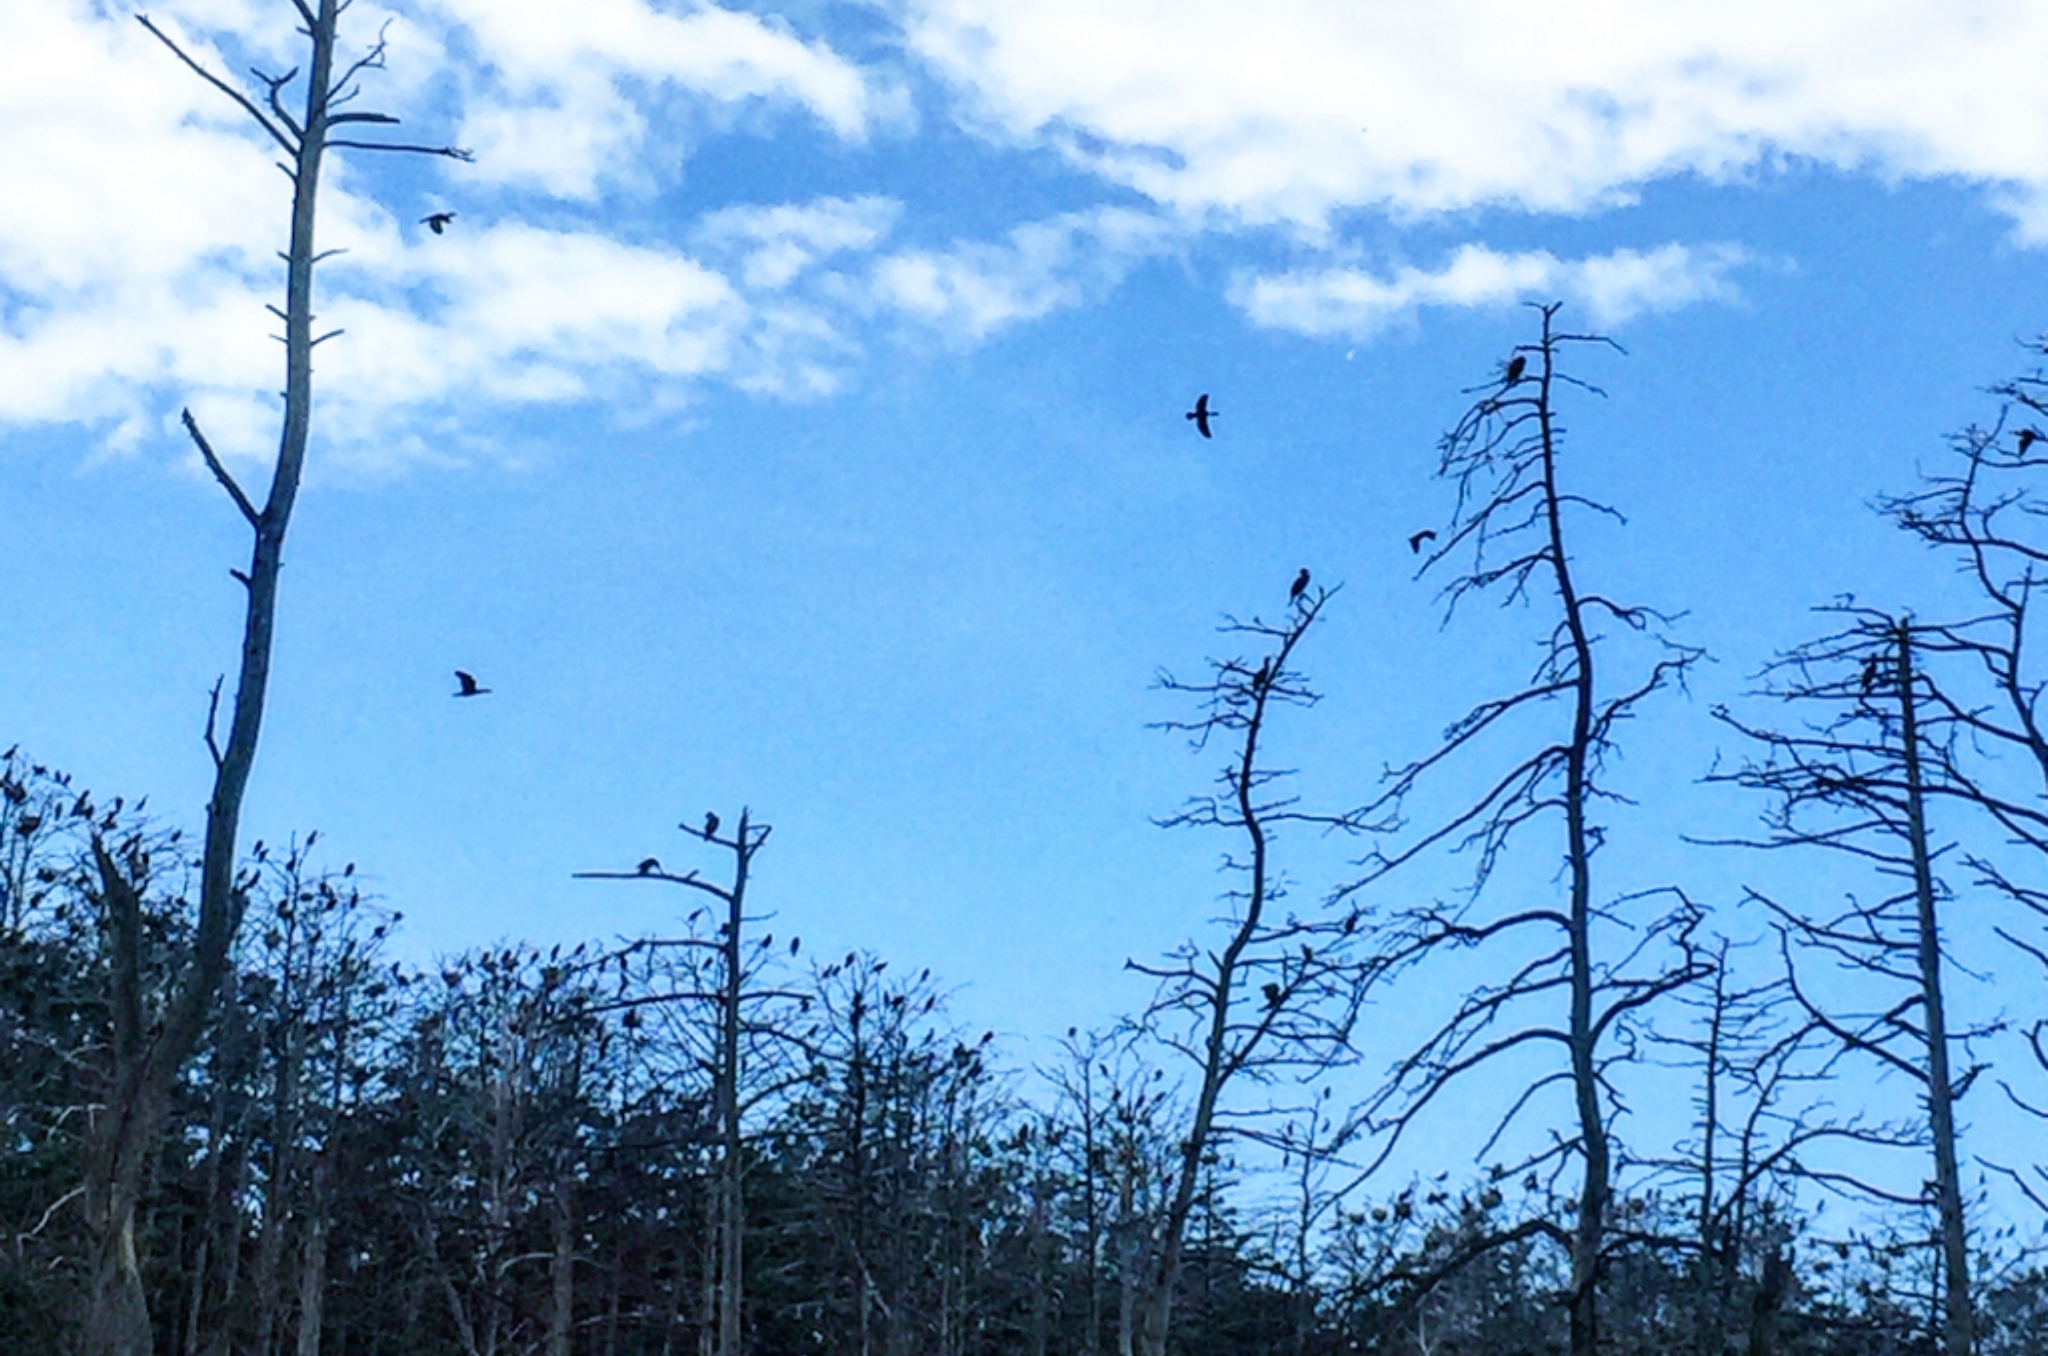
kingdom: Animalia
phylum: Chordata
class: Aves
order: Suliformes
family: Phalacrocoracidae
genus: Phalacrocorax
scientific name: Phalacrocorax carbo
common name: Great cormorant
